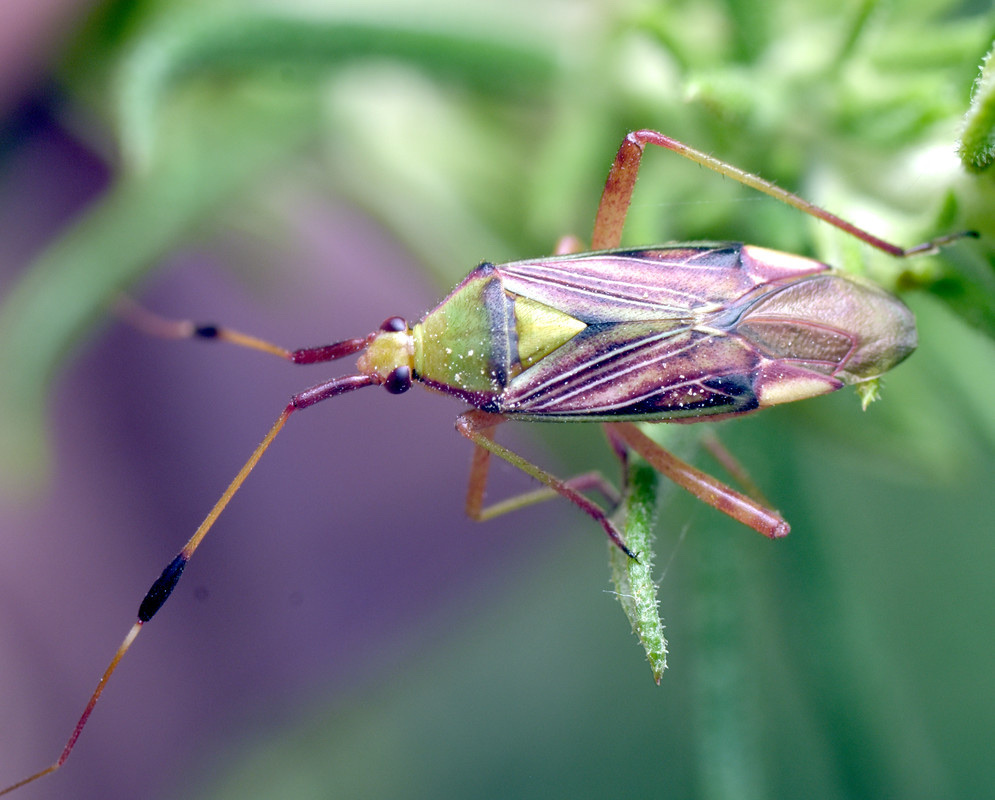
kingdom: Animalia
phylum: Arthropoda
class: Insecta
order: Hemiptera
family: Miridae
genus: Pseudopantilius
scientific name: Pseudopantilius australis
